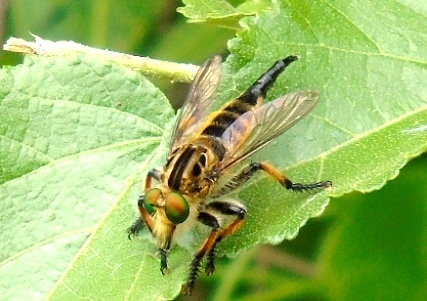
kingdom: Animalia
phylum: Arthropoda
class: Insecta
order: Diptera
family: Asilidae
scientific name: Asilidae
